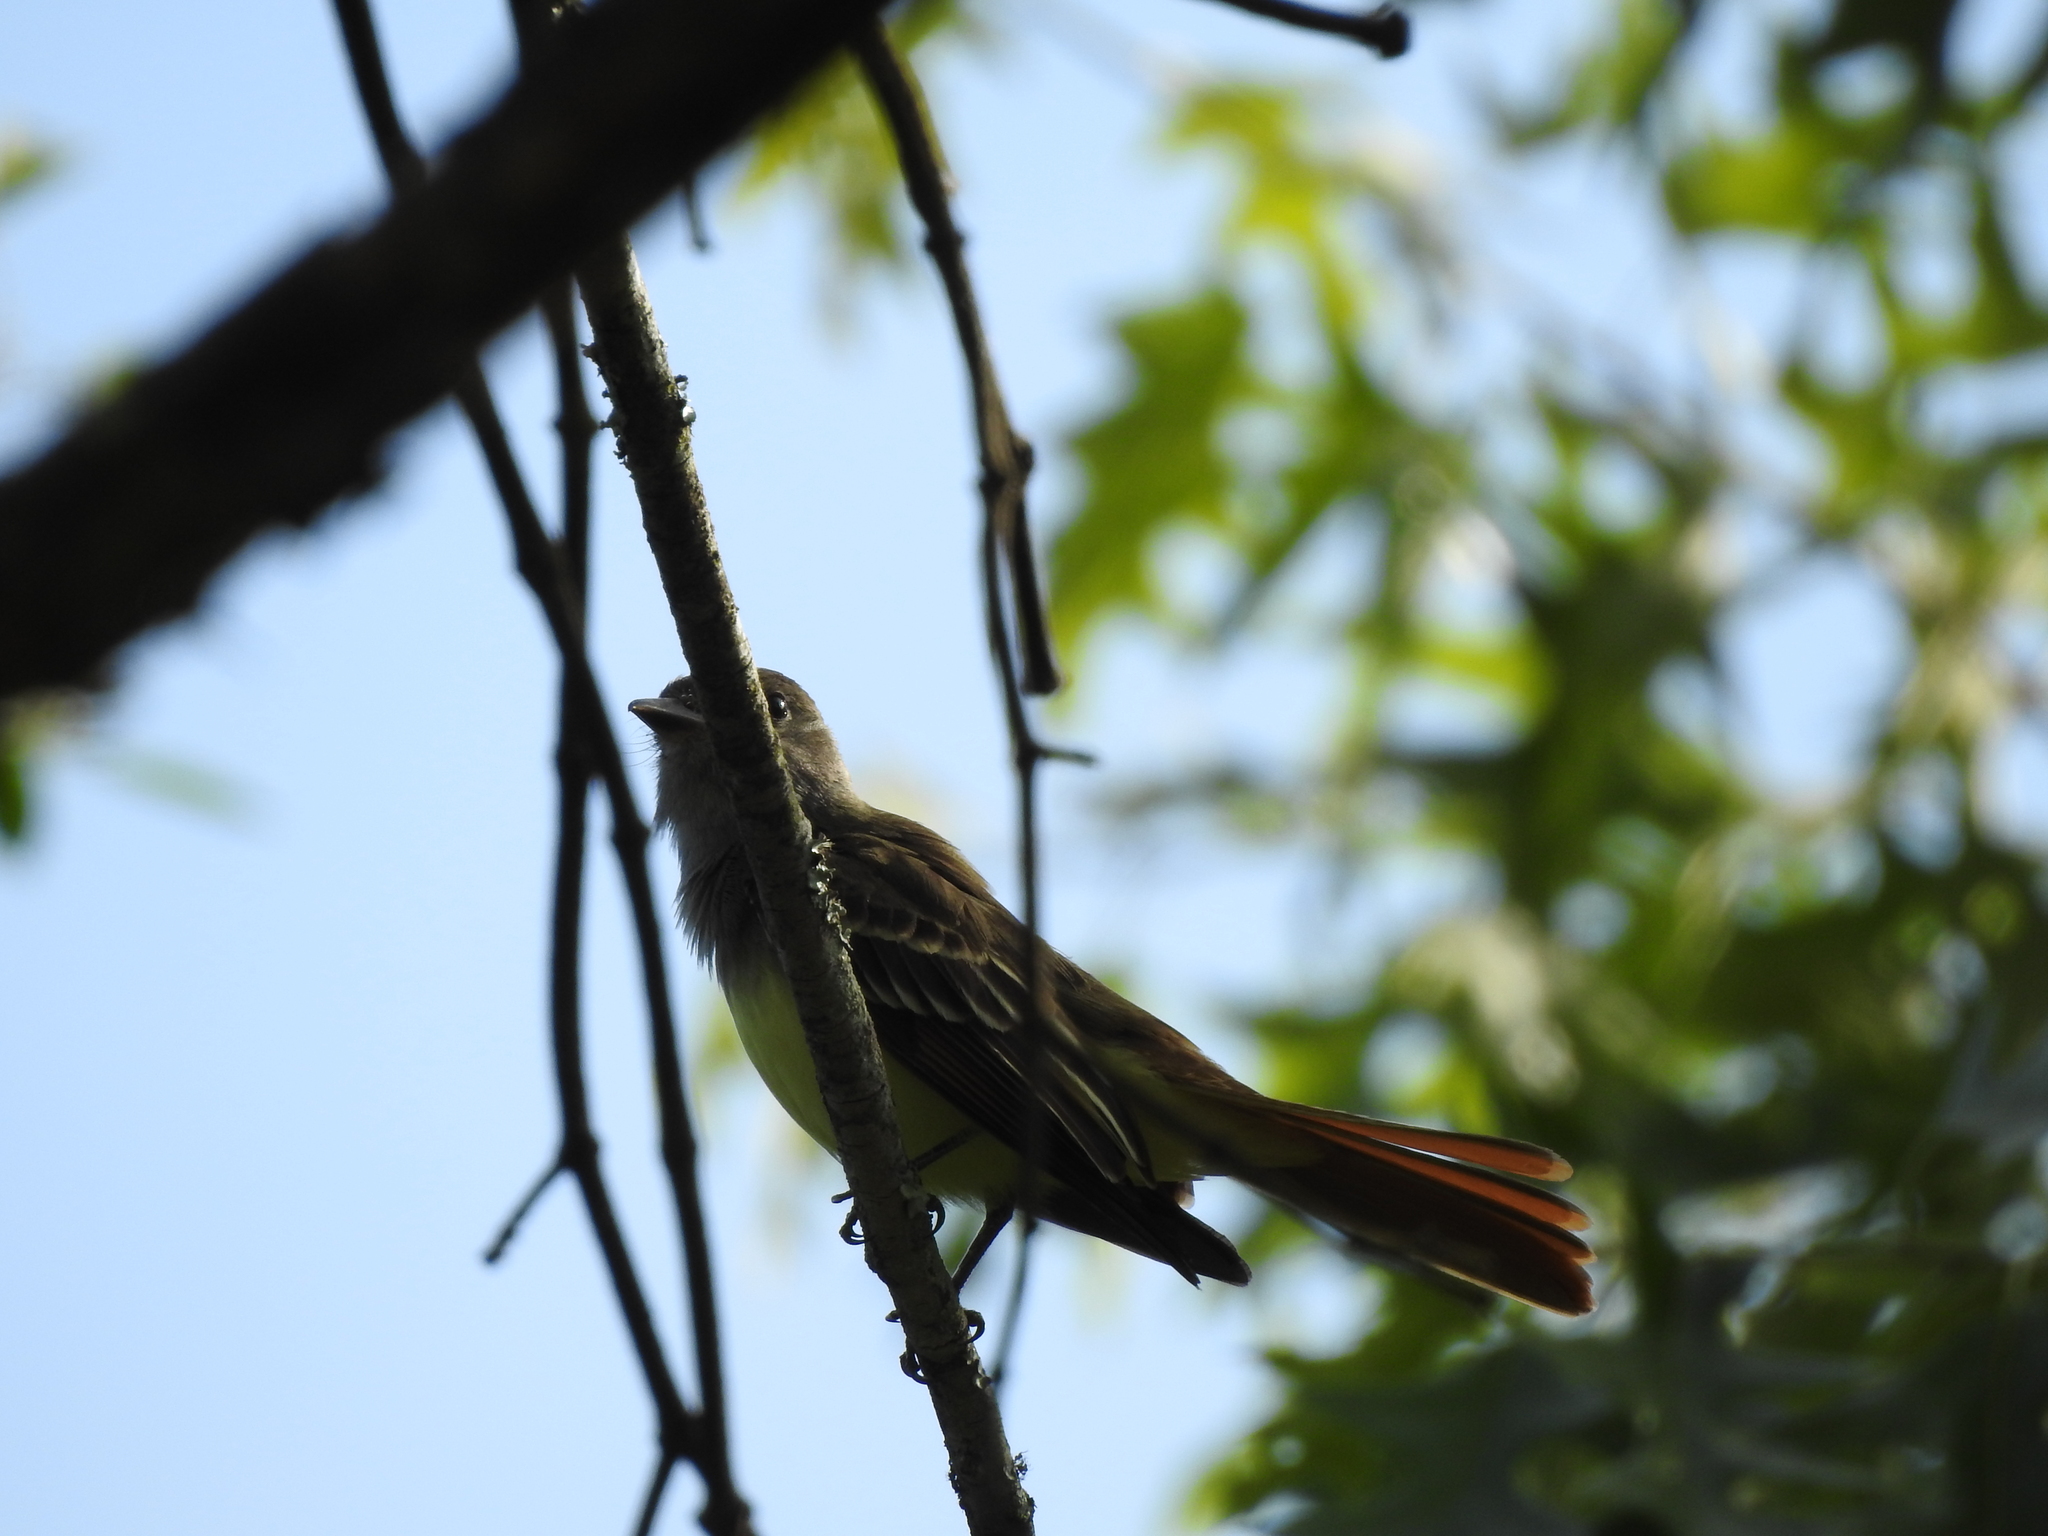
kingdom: Animalia
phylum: Chordata
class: Aves
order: Passeriformes
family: Tyrannidae
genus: Myiarchus
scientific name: Myiarchus crinitus
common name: Great crested flycatcher
